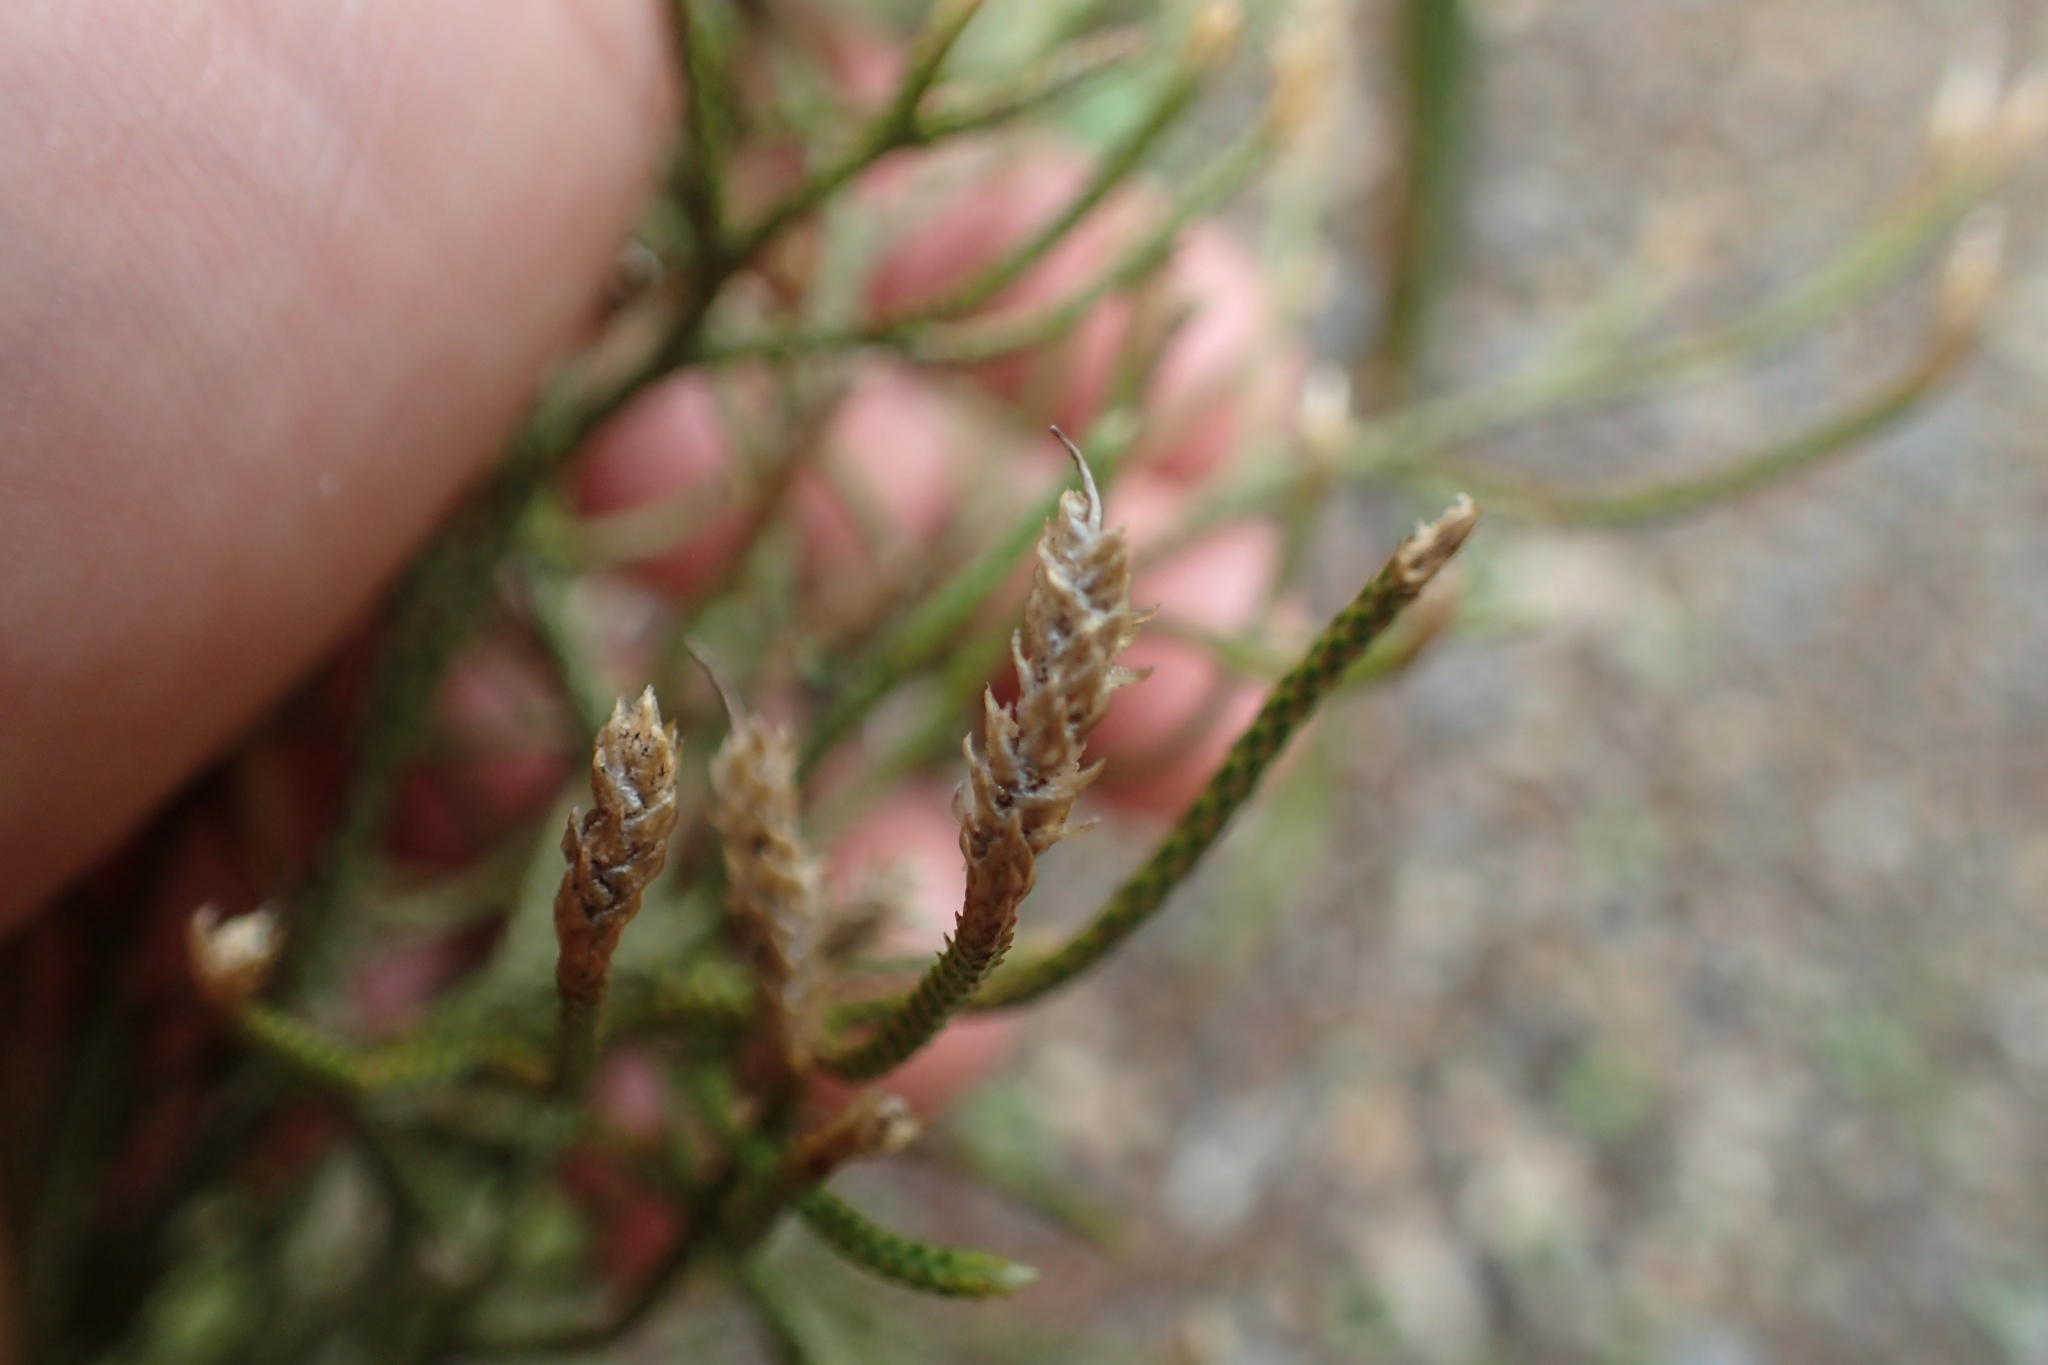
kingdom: Plantae
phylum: Tracheophyta
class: Lycopodiopsida
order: Lycopodiales
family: Lycopodiaceae
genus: Pseudolycopodium
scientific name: Pseudolycopodium densum
